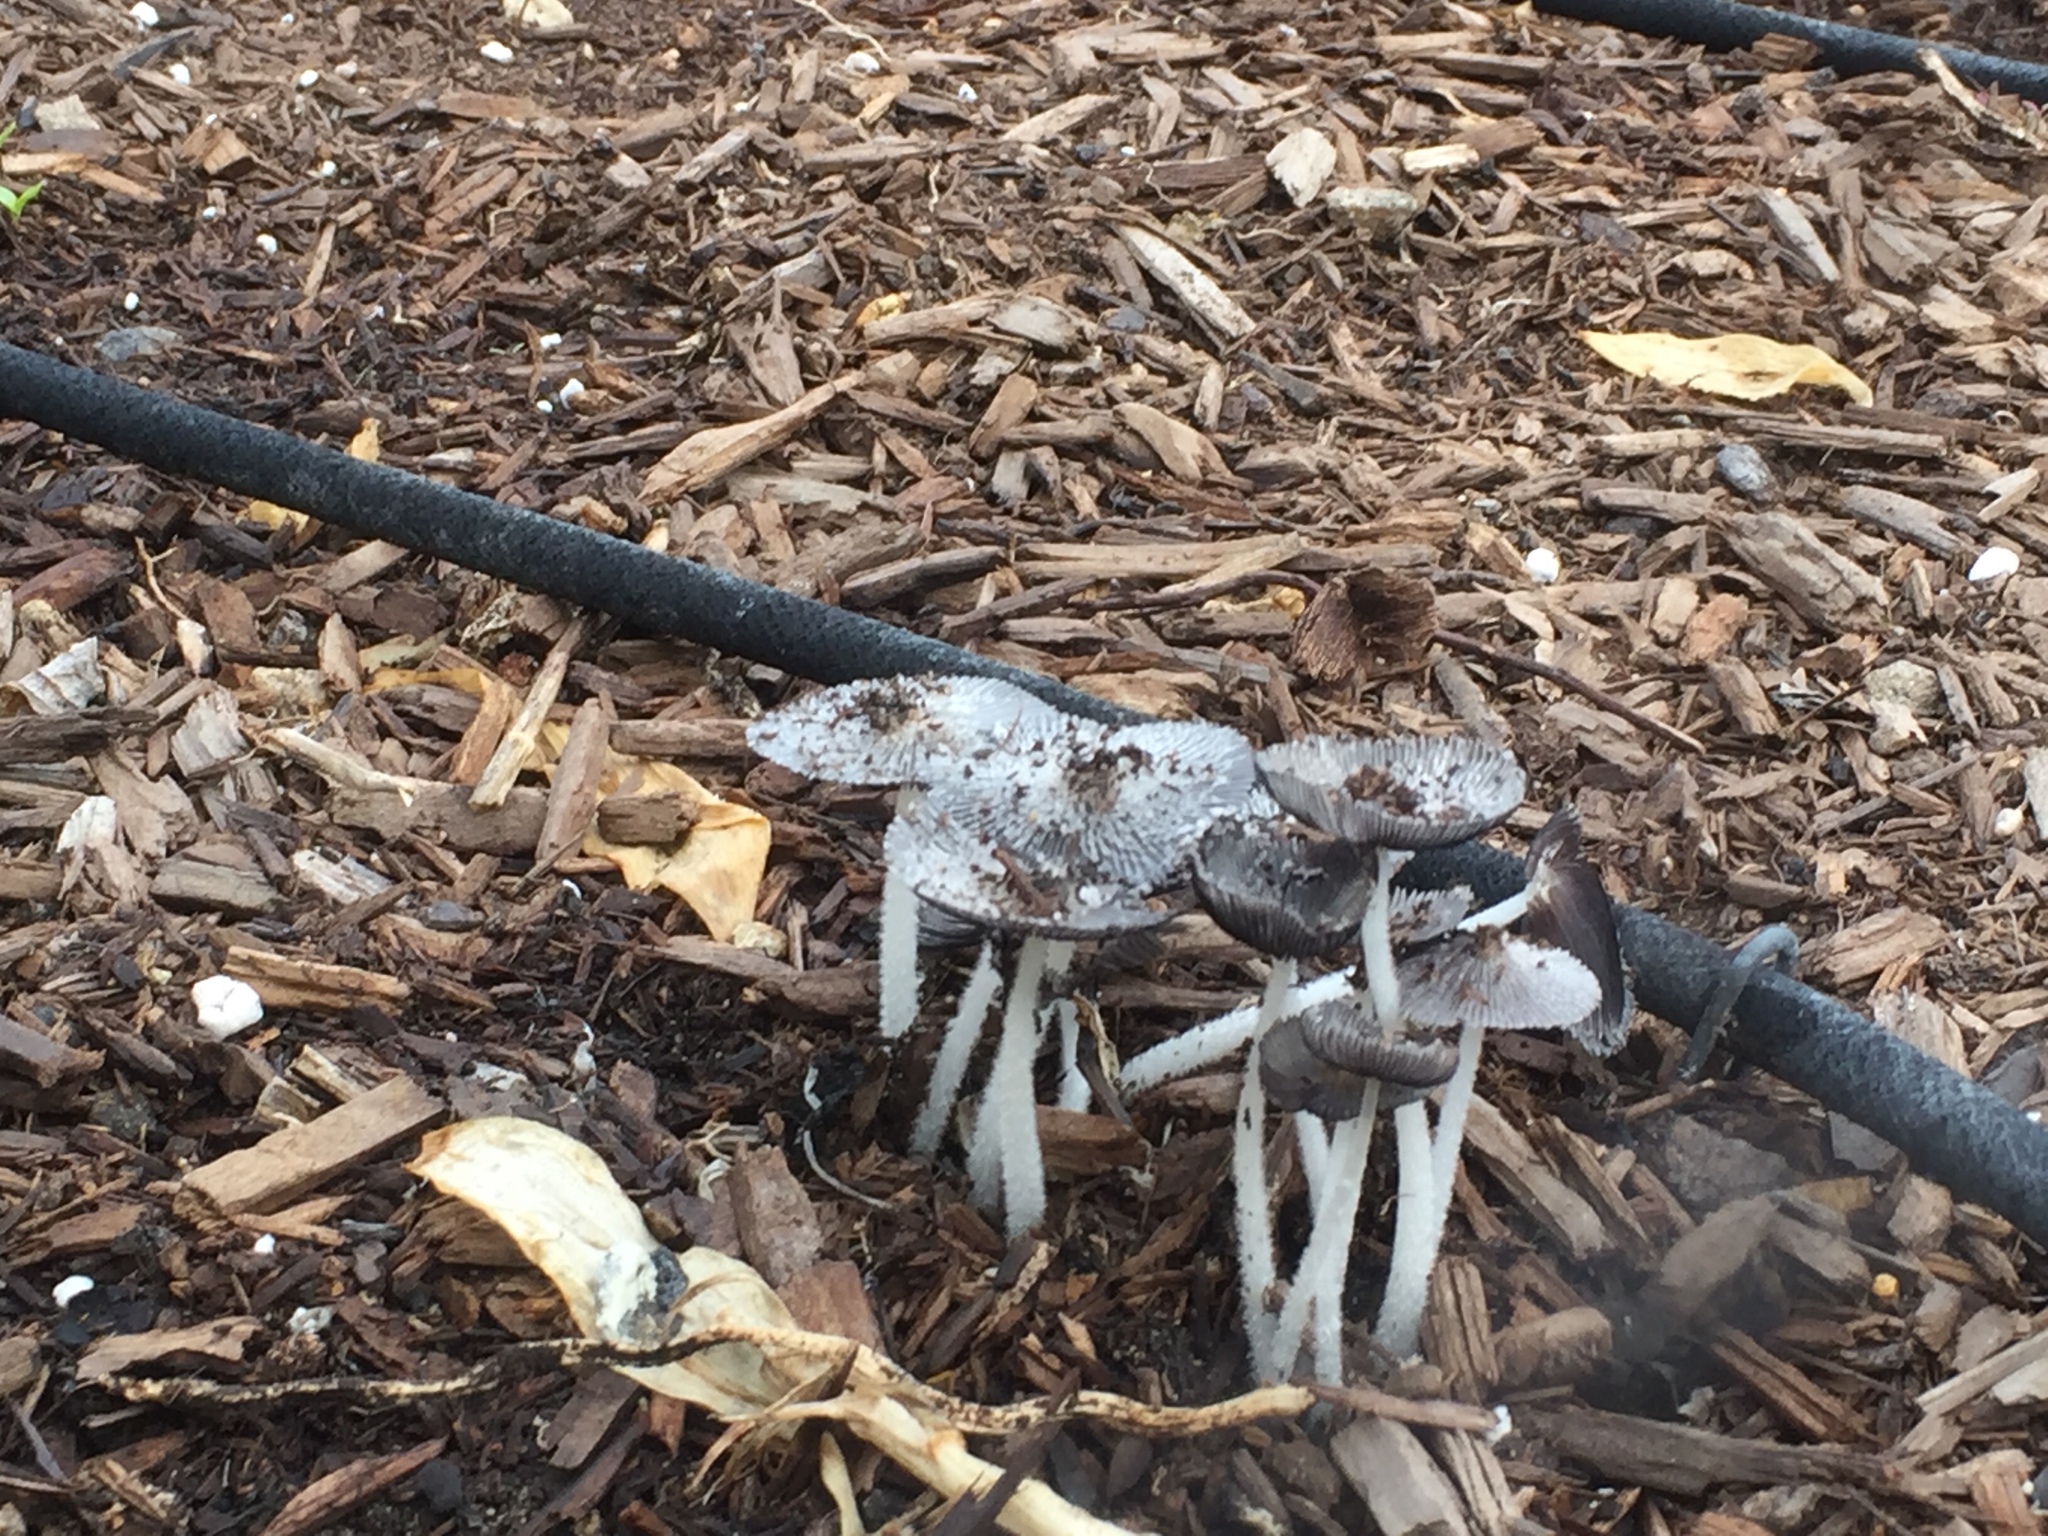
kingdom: Fungi
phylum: Basidiomycota
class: Agaricomycetes
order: Agaricales
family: Psathyrellaceae
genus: Coprinopsis
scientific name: Coprinopsis lagopus
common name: Hare'sfoot inkcap
